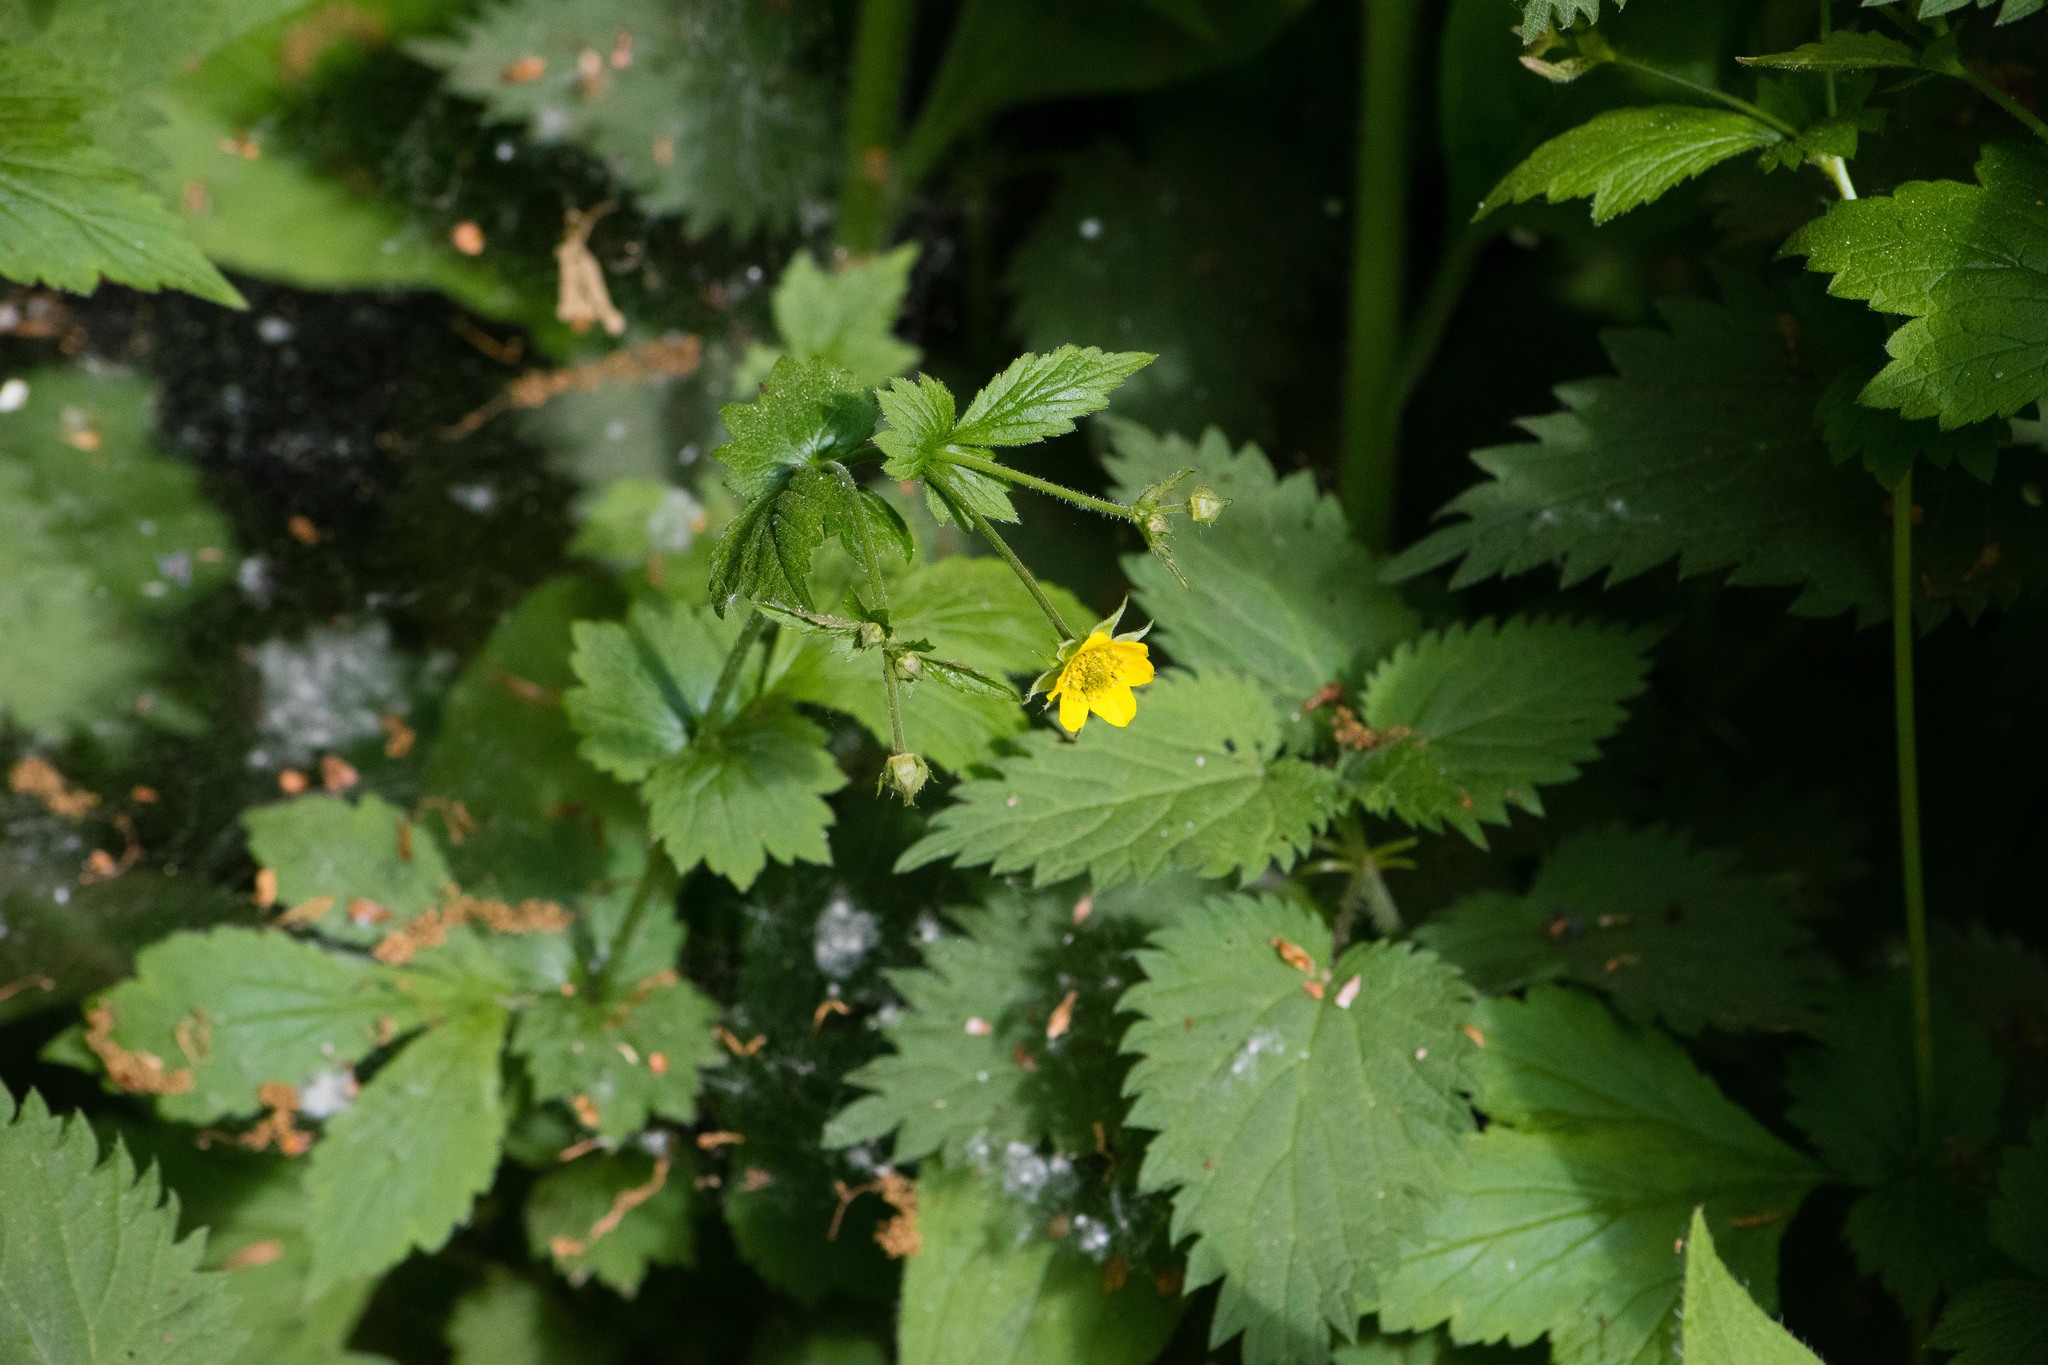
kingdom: Plantae
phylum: Tracheophyta
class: Magnoliopsida
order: Rosales
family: Rosaceae
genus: Geum
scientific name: Geum urbanum
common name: Wood avens
